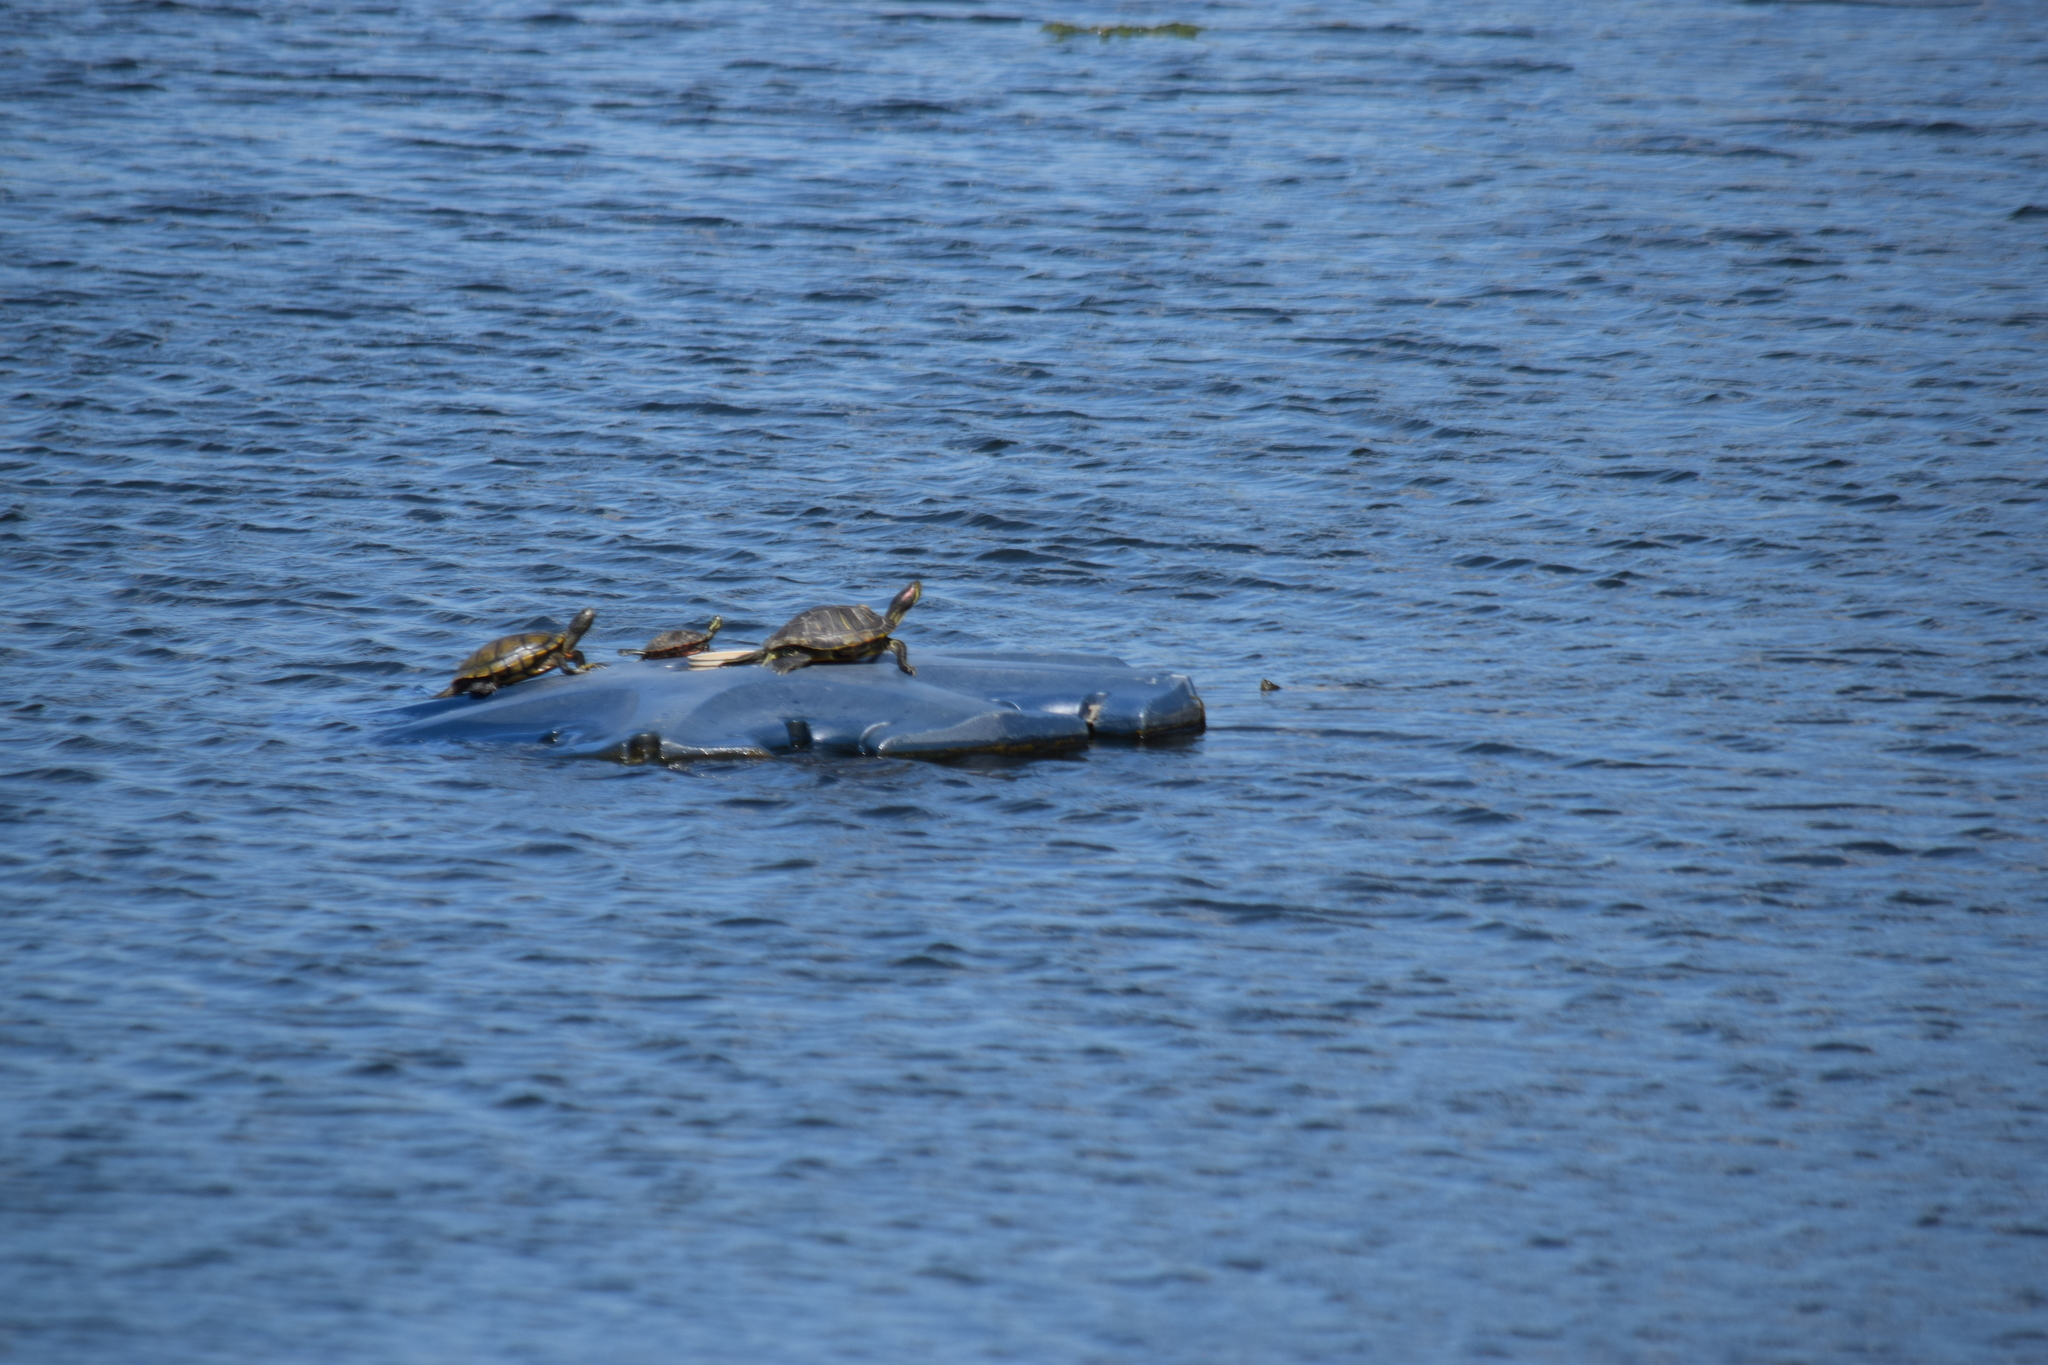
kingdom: Animalia
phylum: Chordata
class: Testudines
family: Emydidae
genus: Trachemys
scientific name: Trachemys scripta
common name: Slider
